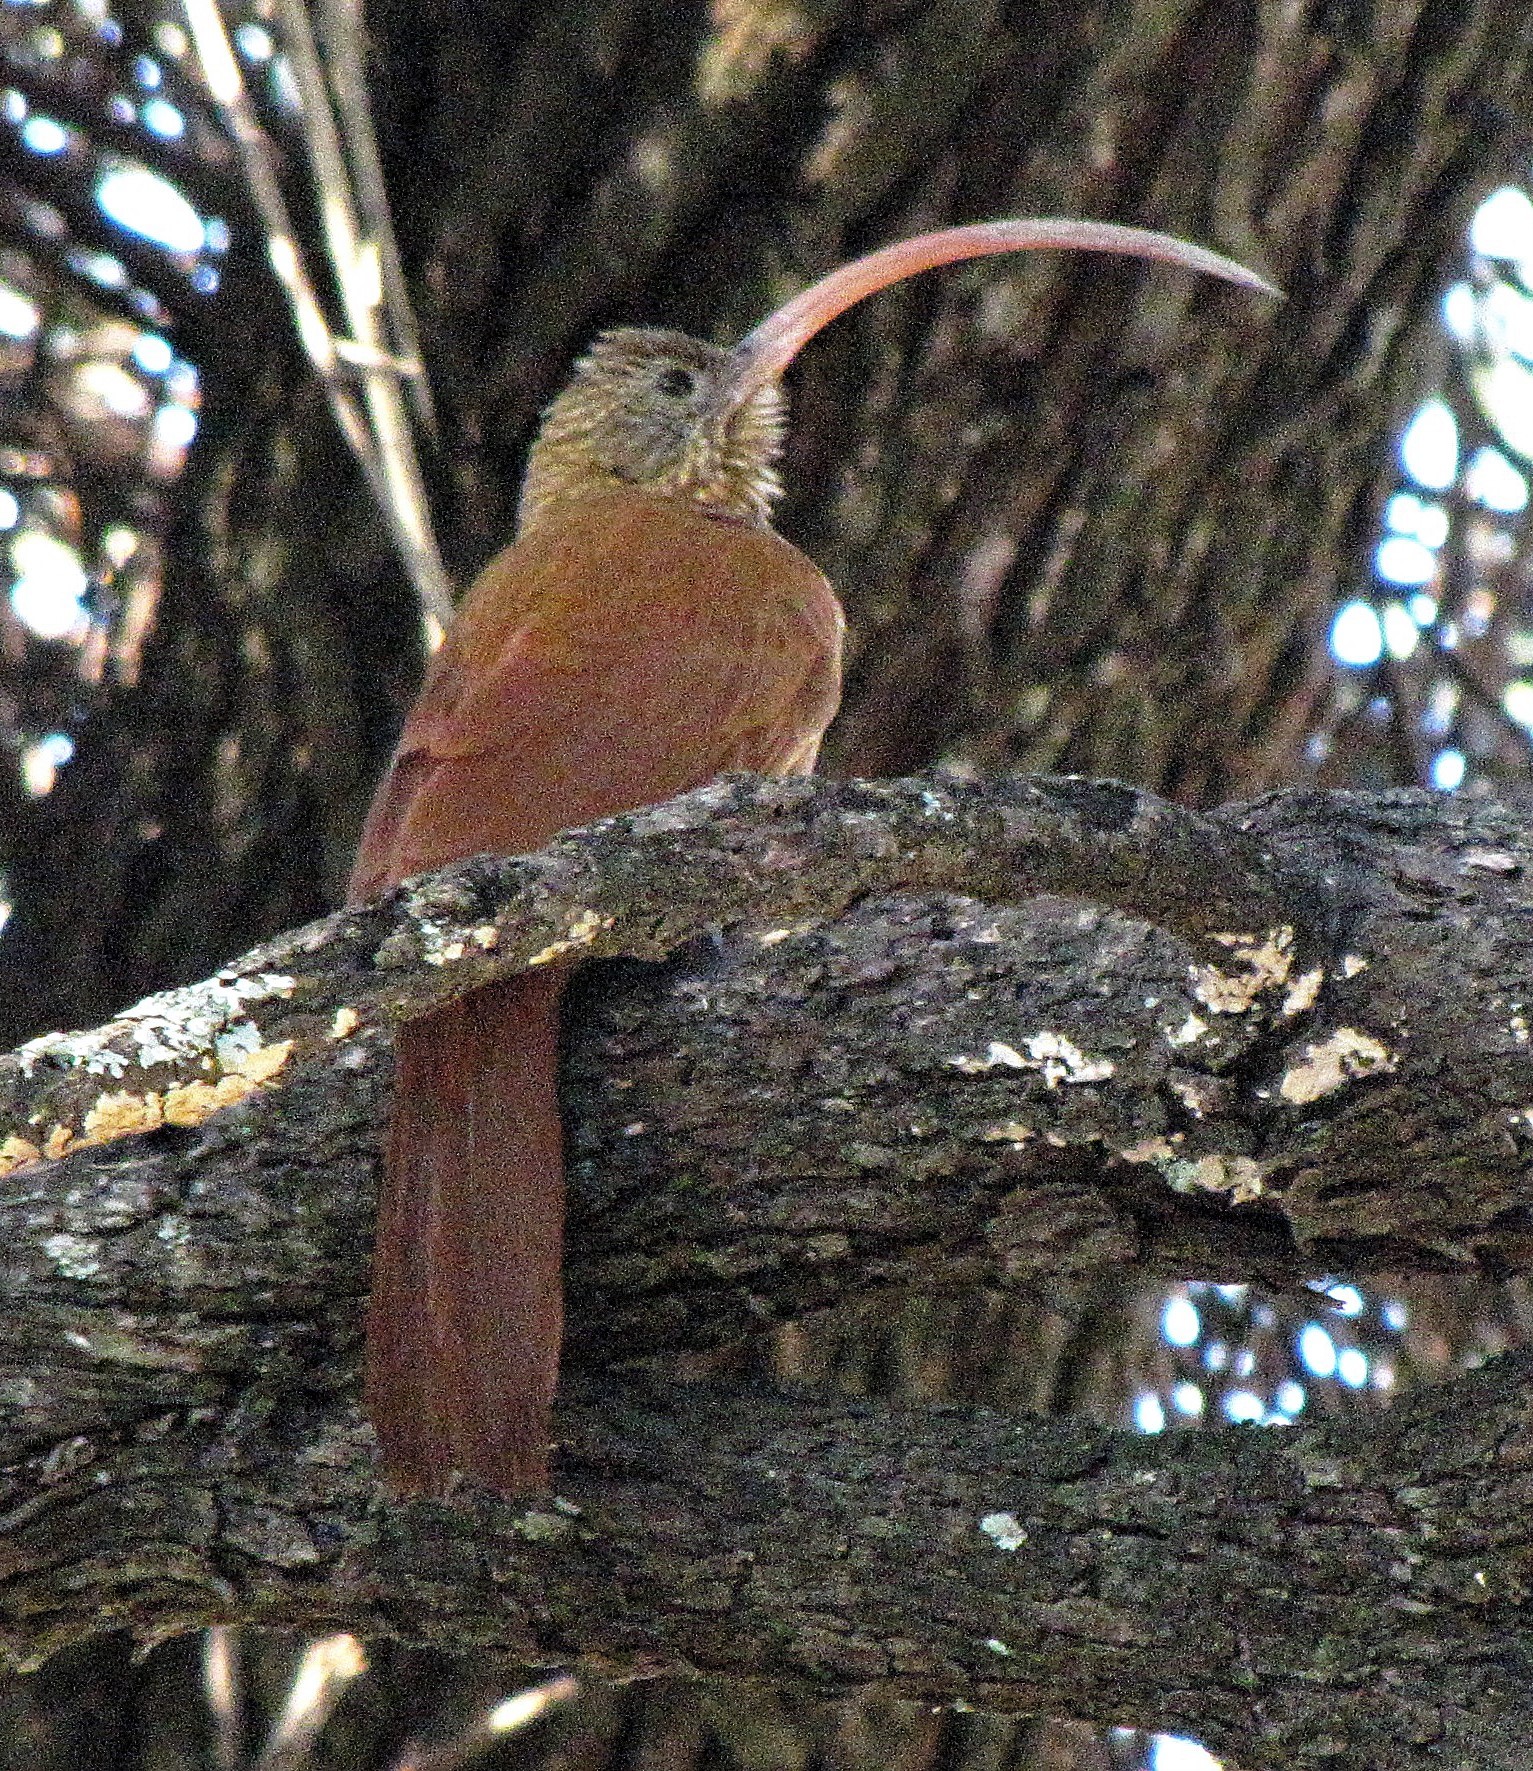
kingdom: Animalia
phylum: Chordata
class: Aves
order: Passeriformes
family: Furnariidae
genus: Campylorhamphus
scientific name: Campylorhamphus trochilirostris
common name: Red-billed scythebill
